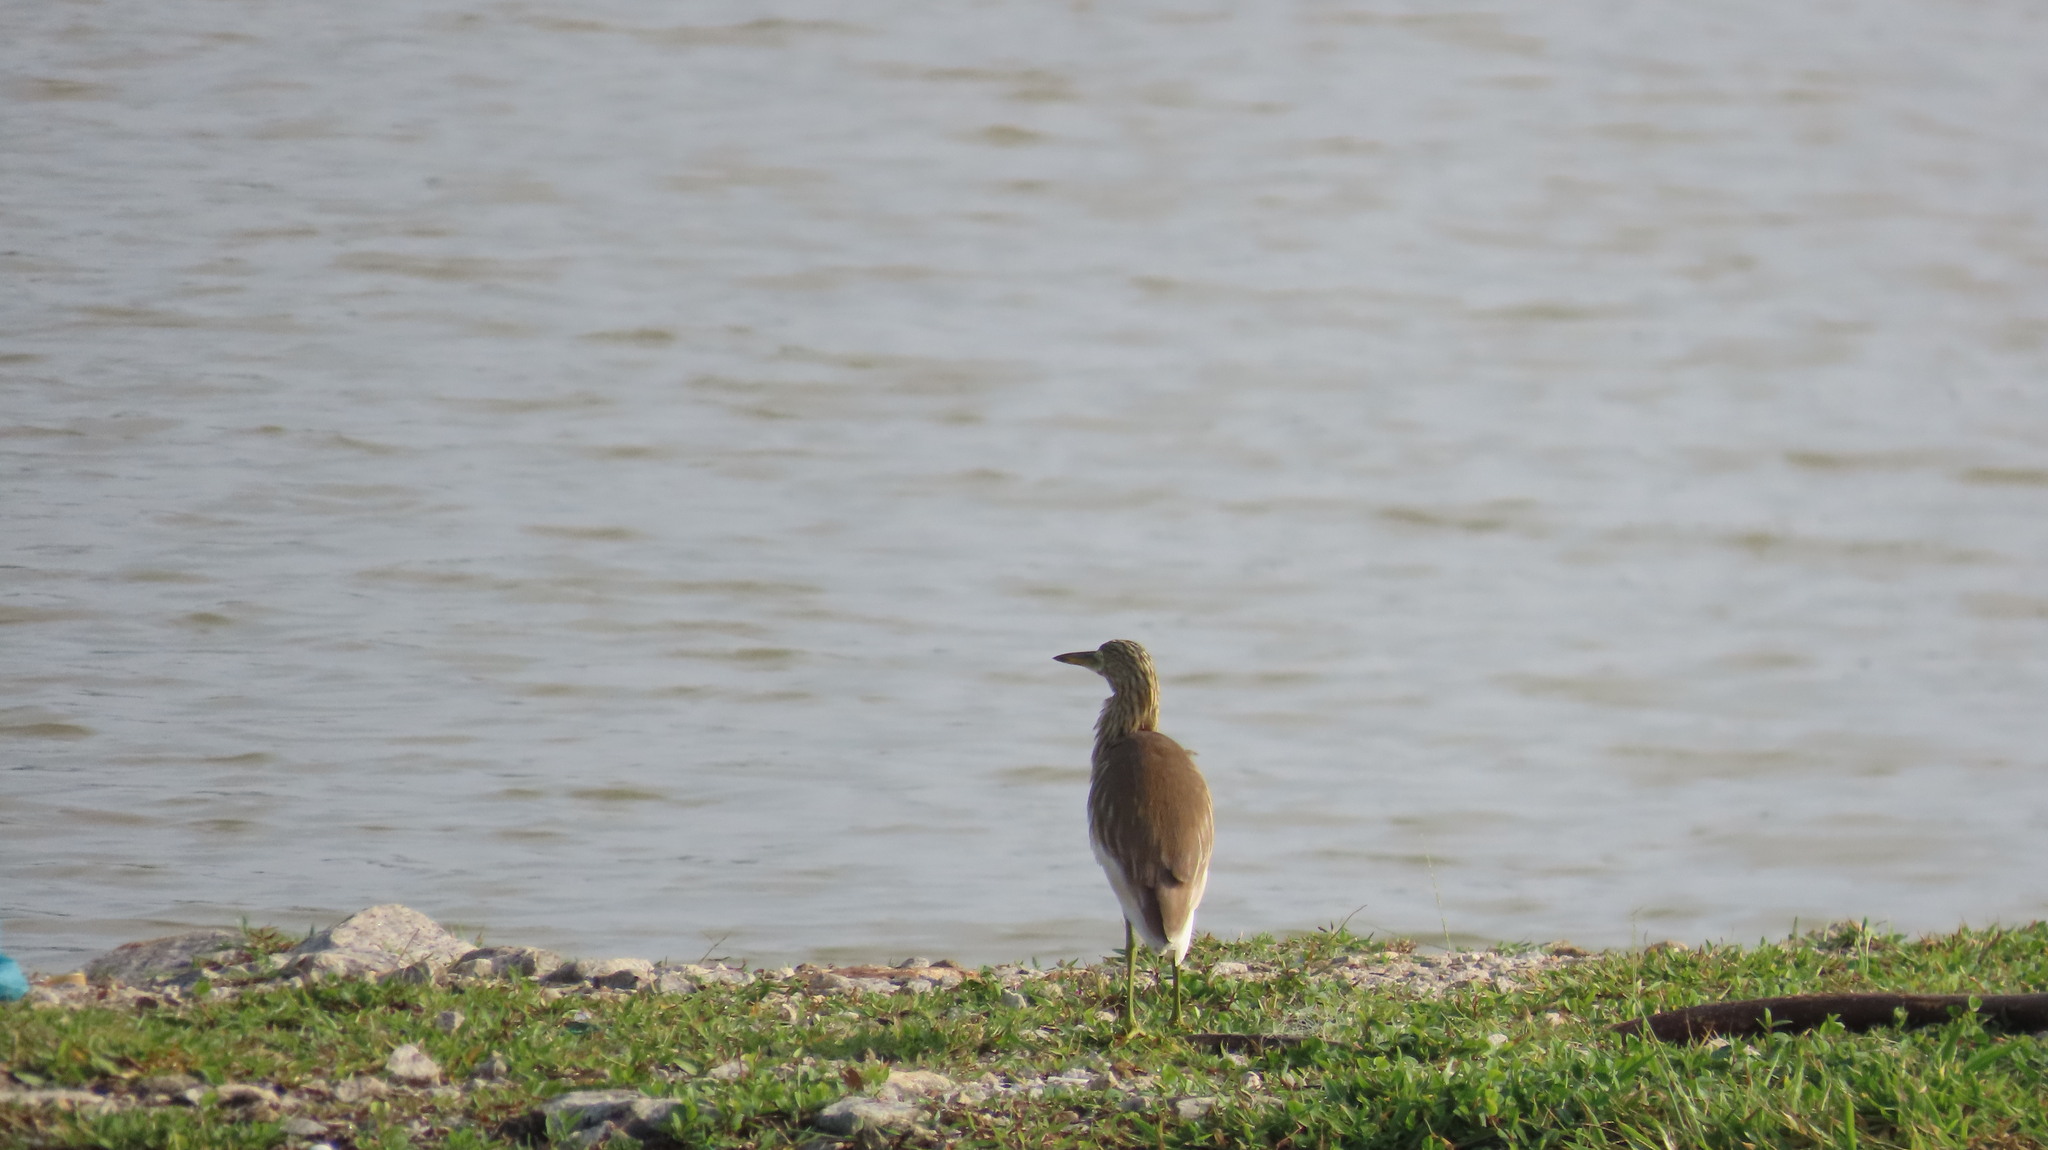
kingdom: Animalia
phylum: Chordata
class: Aves
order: Pelecaniformes
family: Ardeidae
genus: Ardeola
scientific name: Ardeola grayii
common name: Indian pond heron
